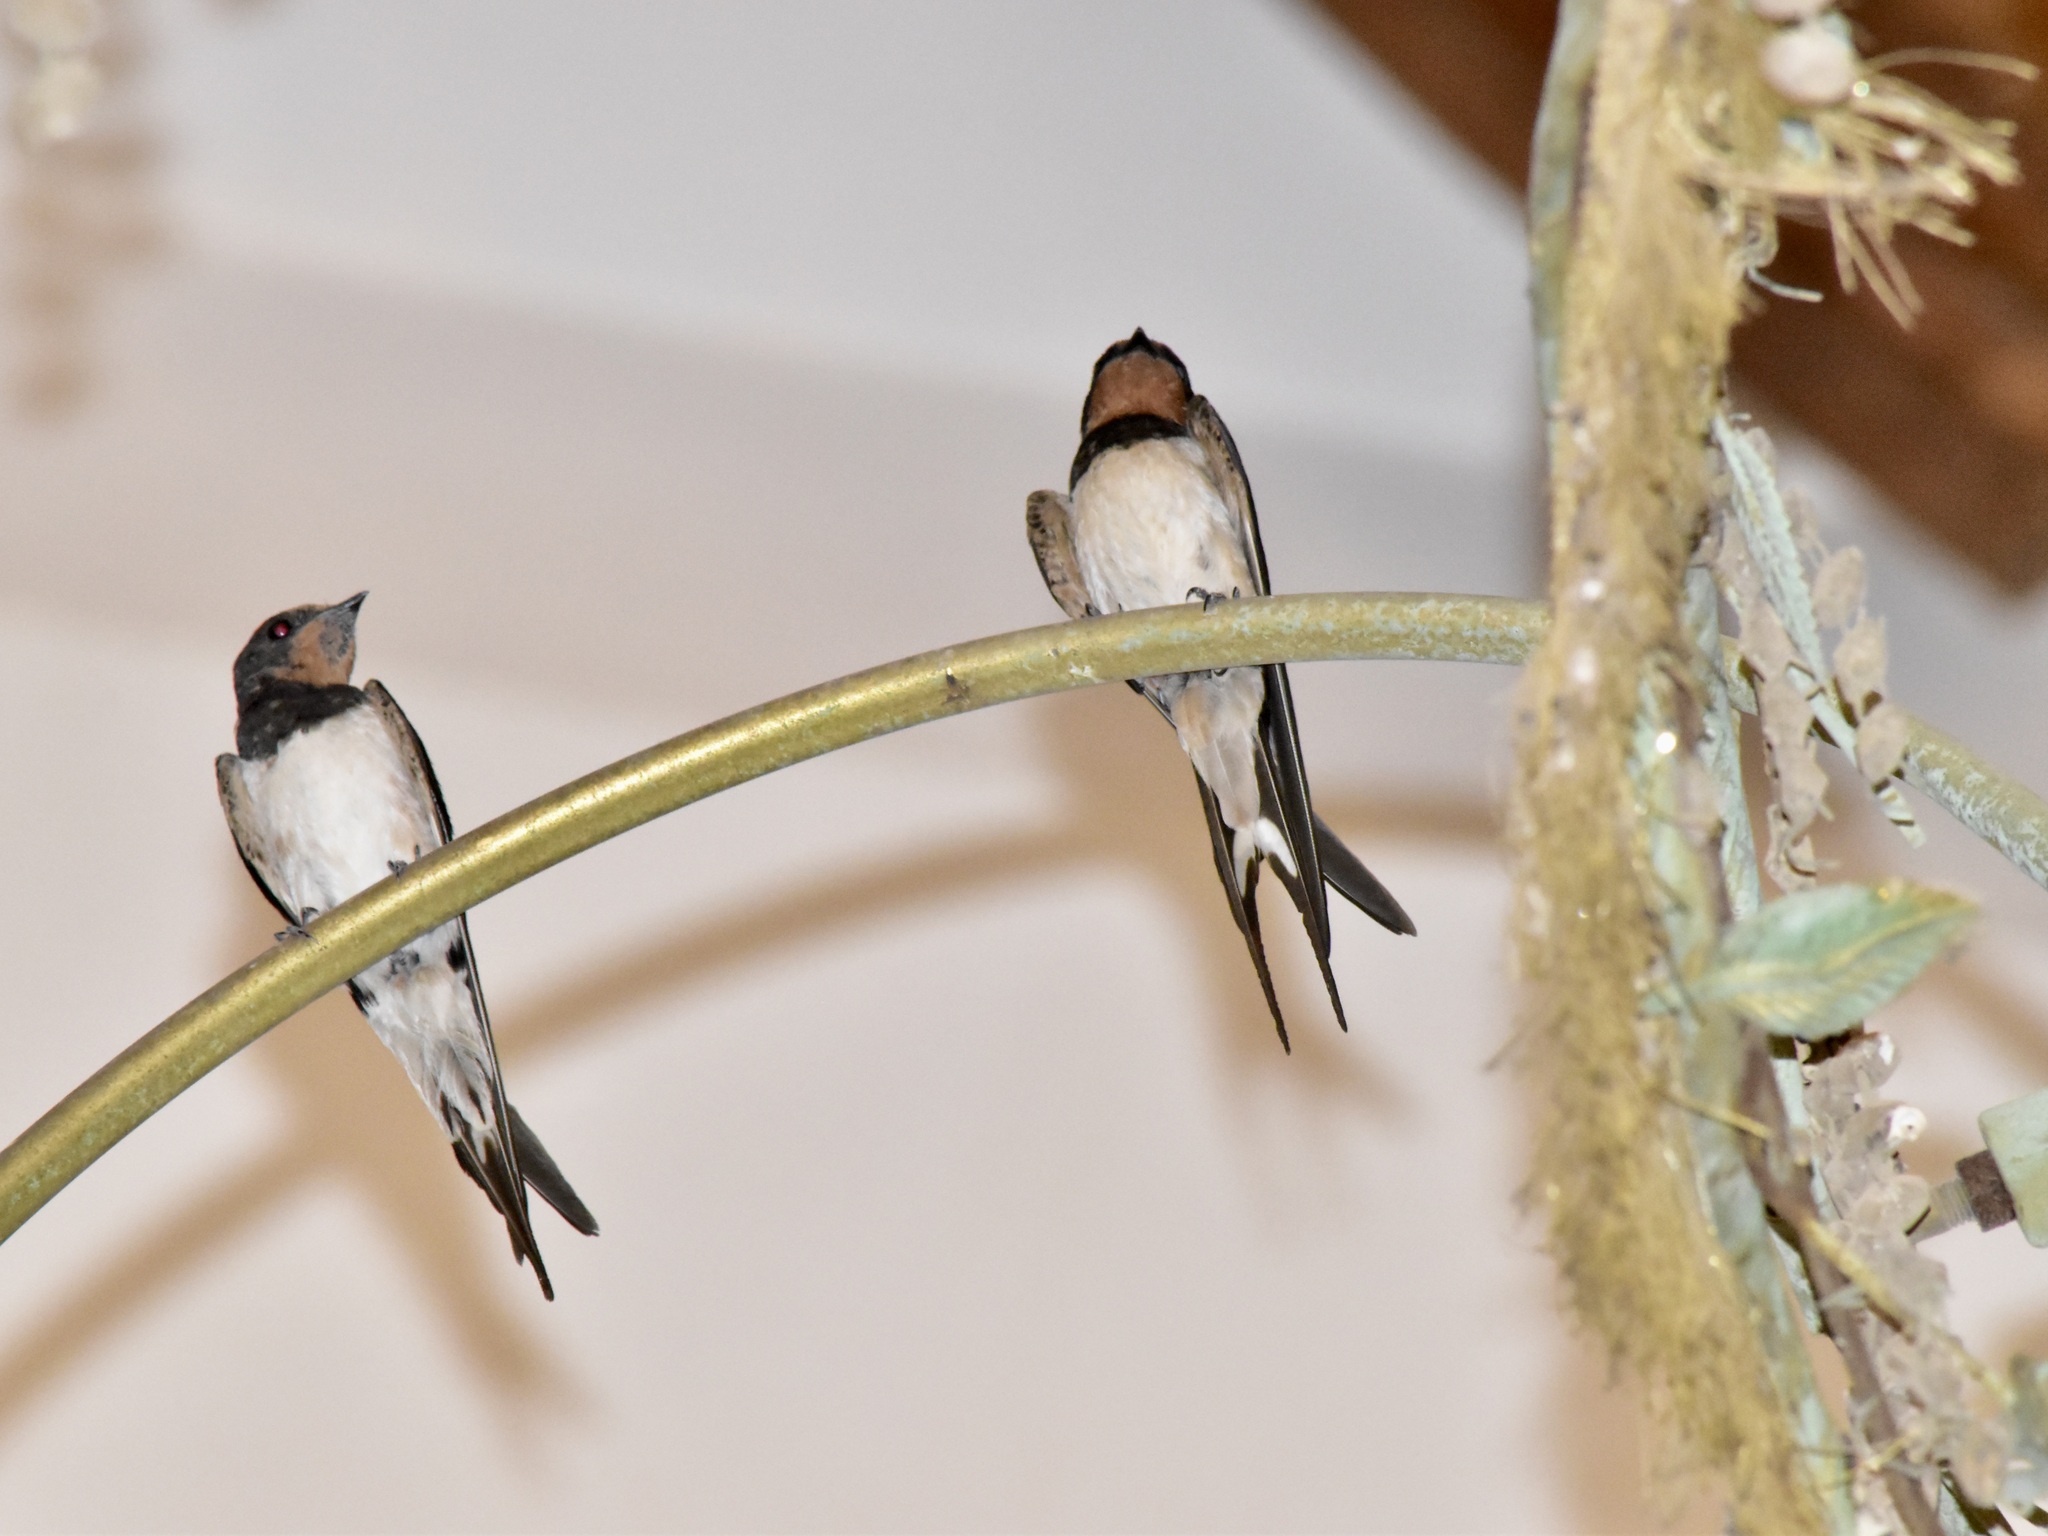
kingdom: Animalia
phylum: Chordata
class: Aves
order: Passeriformes
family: Hirundinidae
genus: Hirundo
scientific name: Hirundo rustica
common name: Barn swallow
